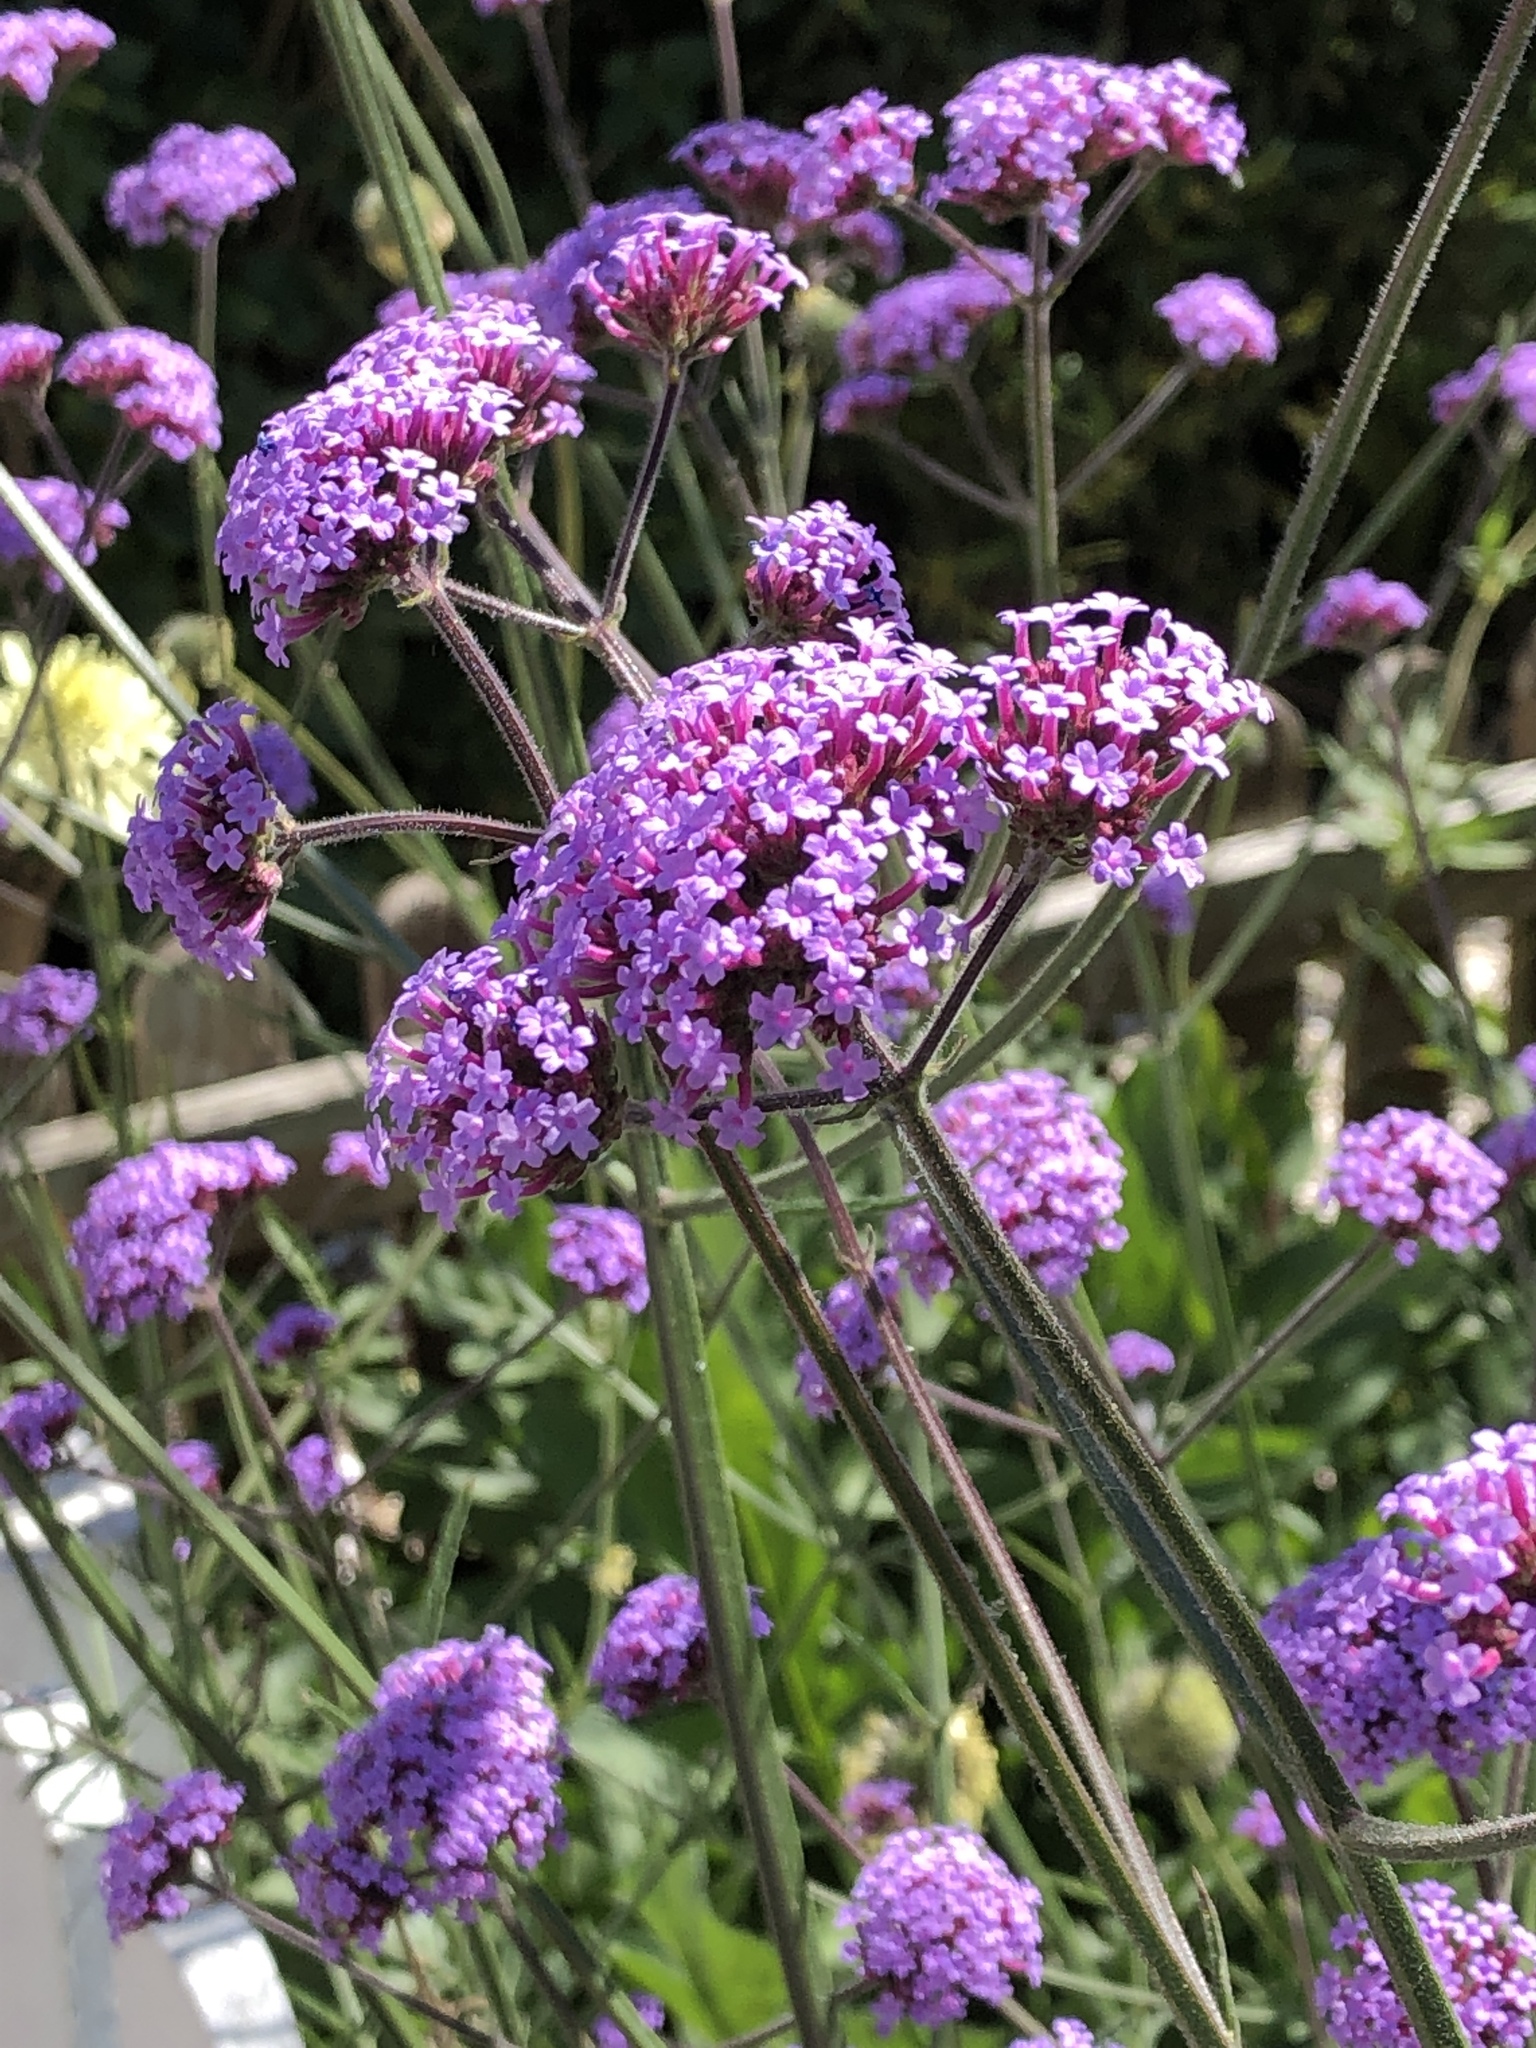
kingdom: Plantae
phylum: Tracheophyta
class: Magnoliopsida
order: Lamiales
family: Verbenaceae
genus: Verbena
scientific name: Verbena bonariensis
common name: Purpletop vervain
